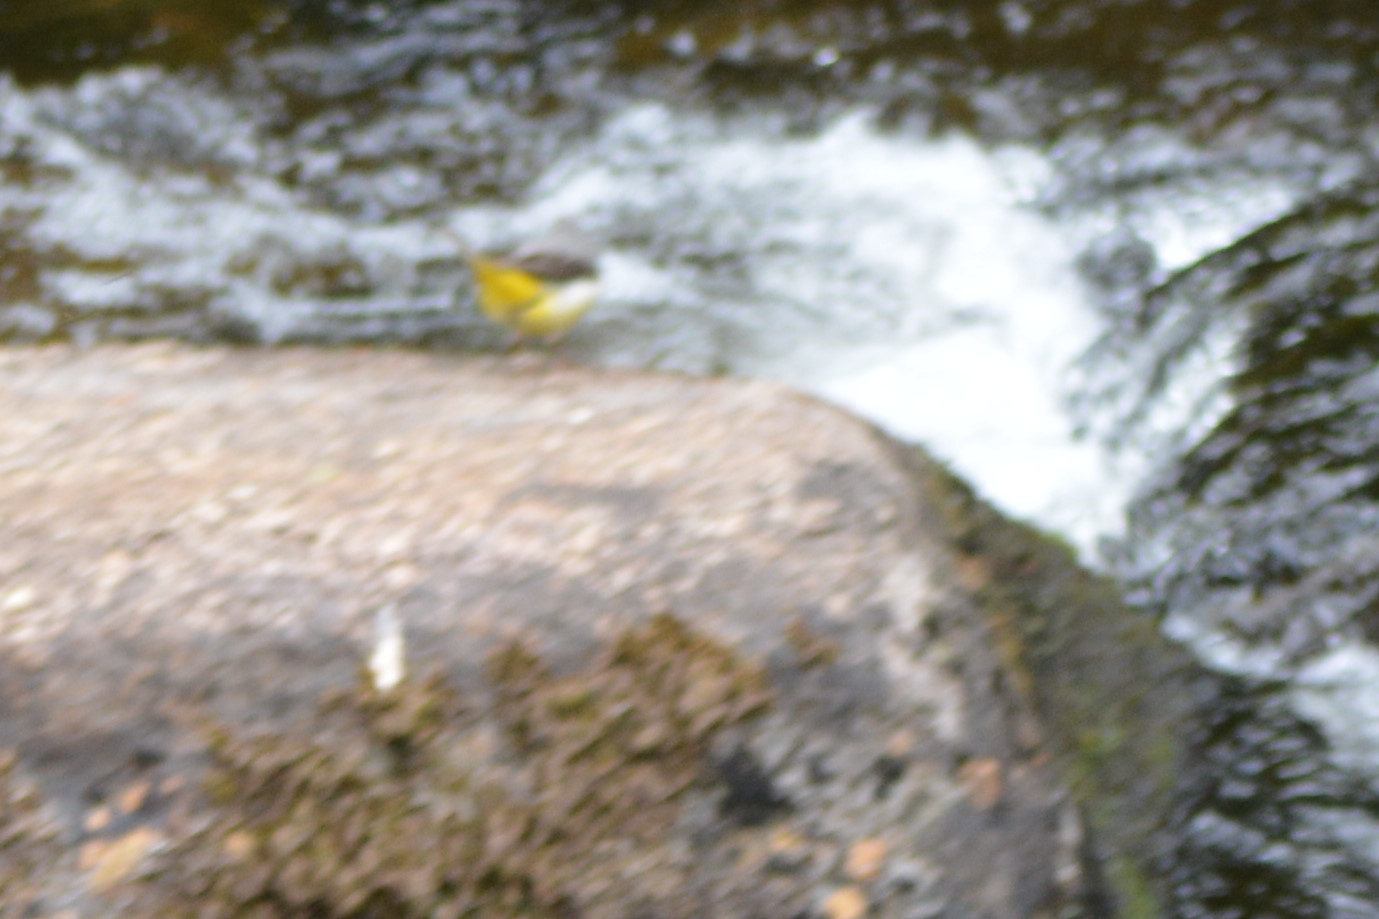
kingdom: Animalia
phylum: Chordata
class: Aves
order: Passeriformes
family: Motacillidae
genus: Motacilla
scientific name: Motacilla cinerea
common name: Grey wagtail
